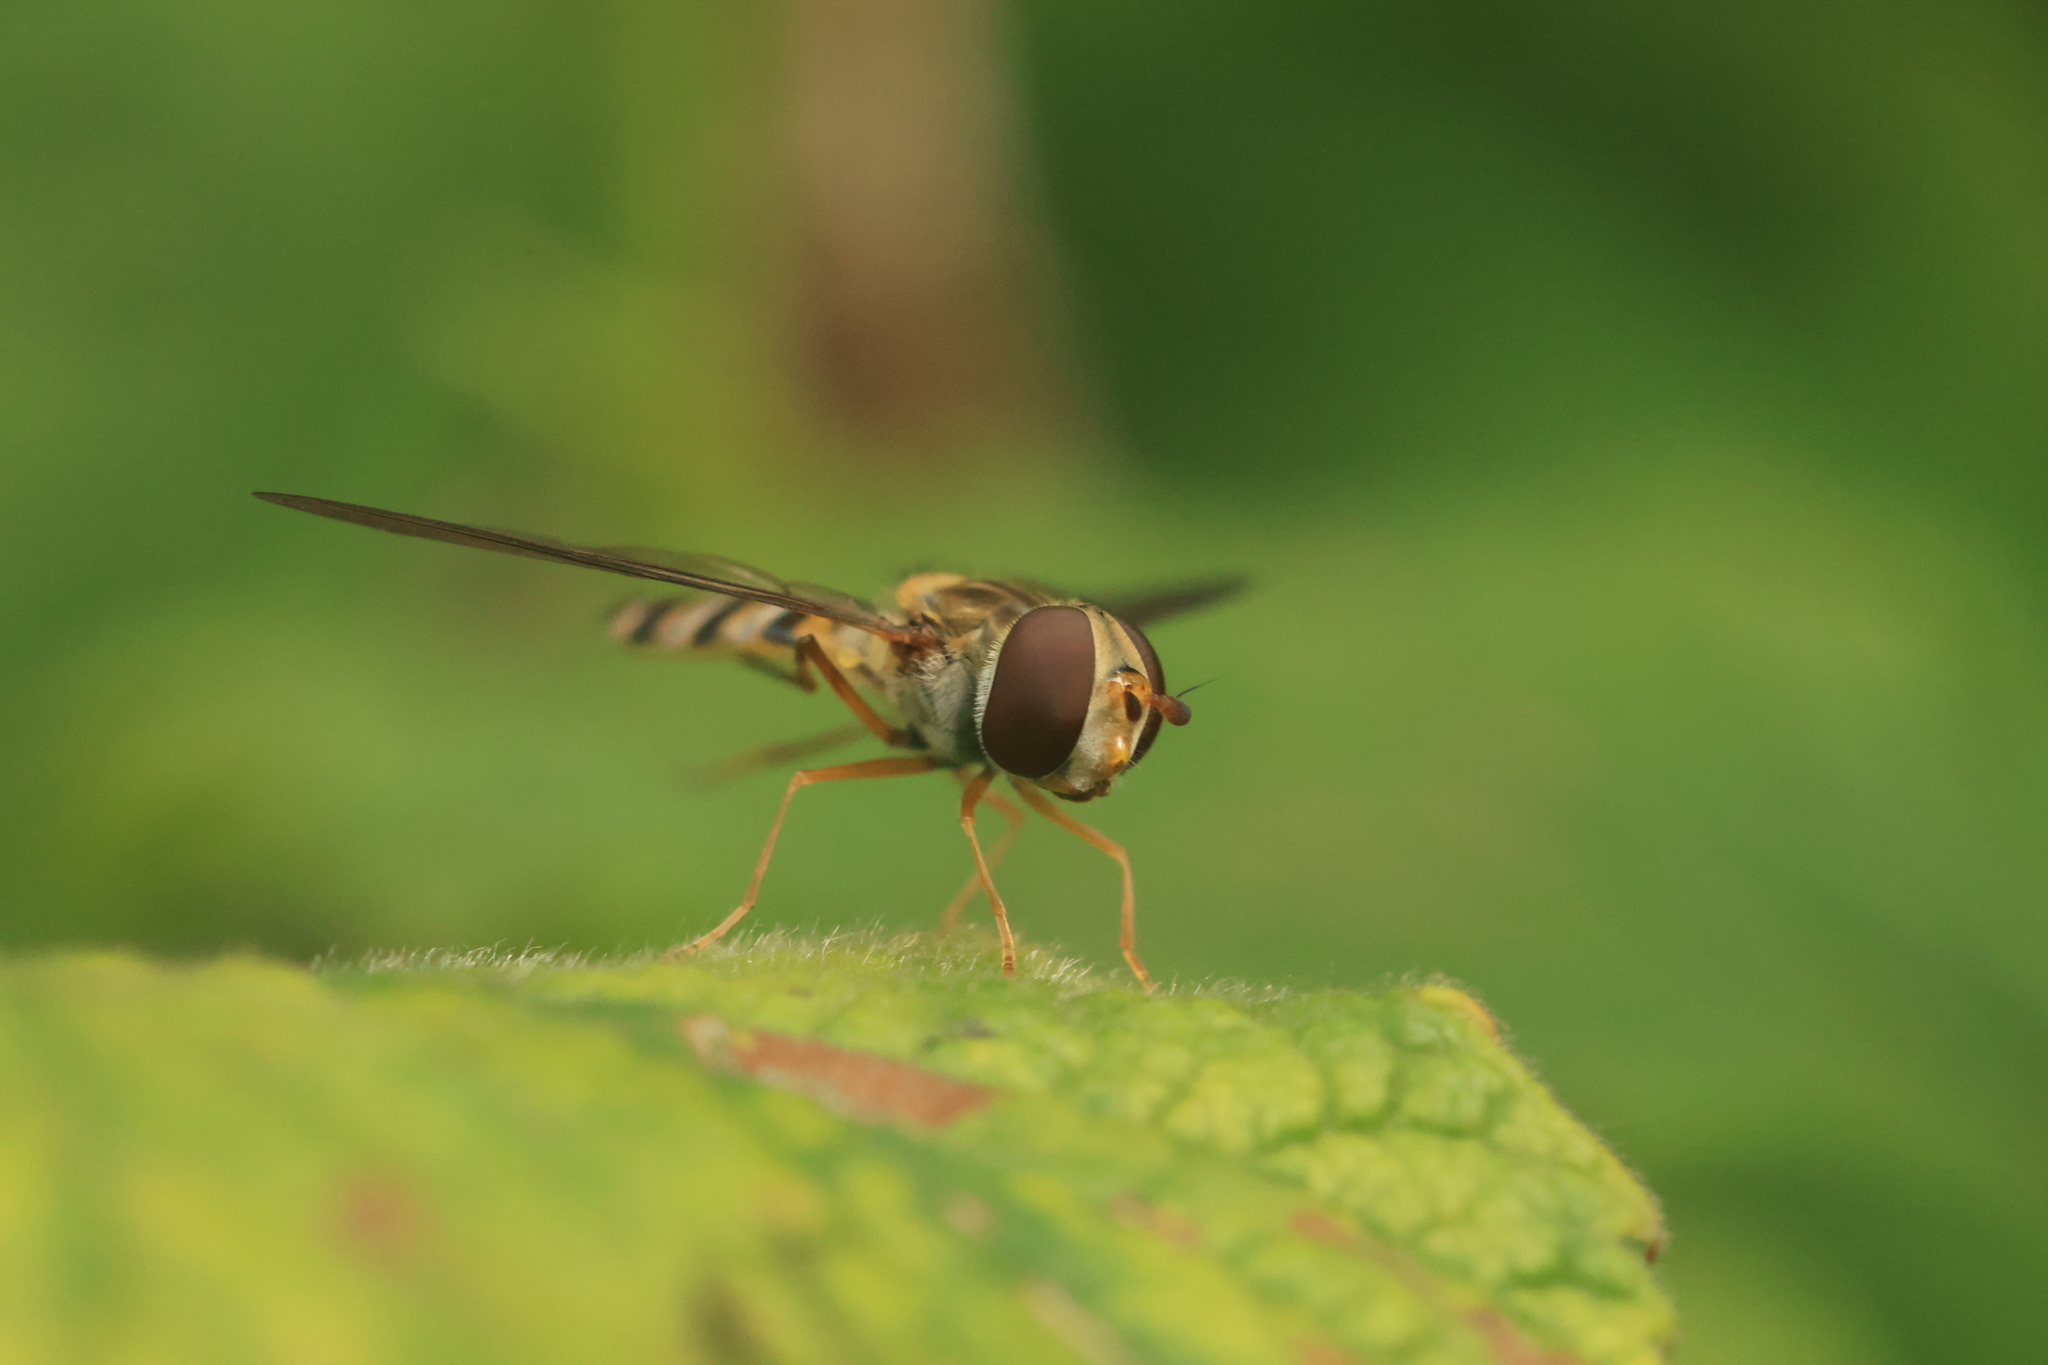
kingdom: Animalia
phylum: Arthropoda
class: Insecta
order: Diptera
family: Syrphidae
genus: Episyrphus
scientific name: Episyrphus balteatus
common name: Marmalade hoverfly
